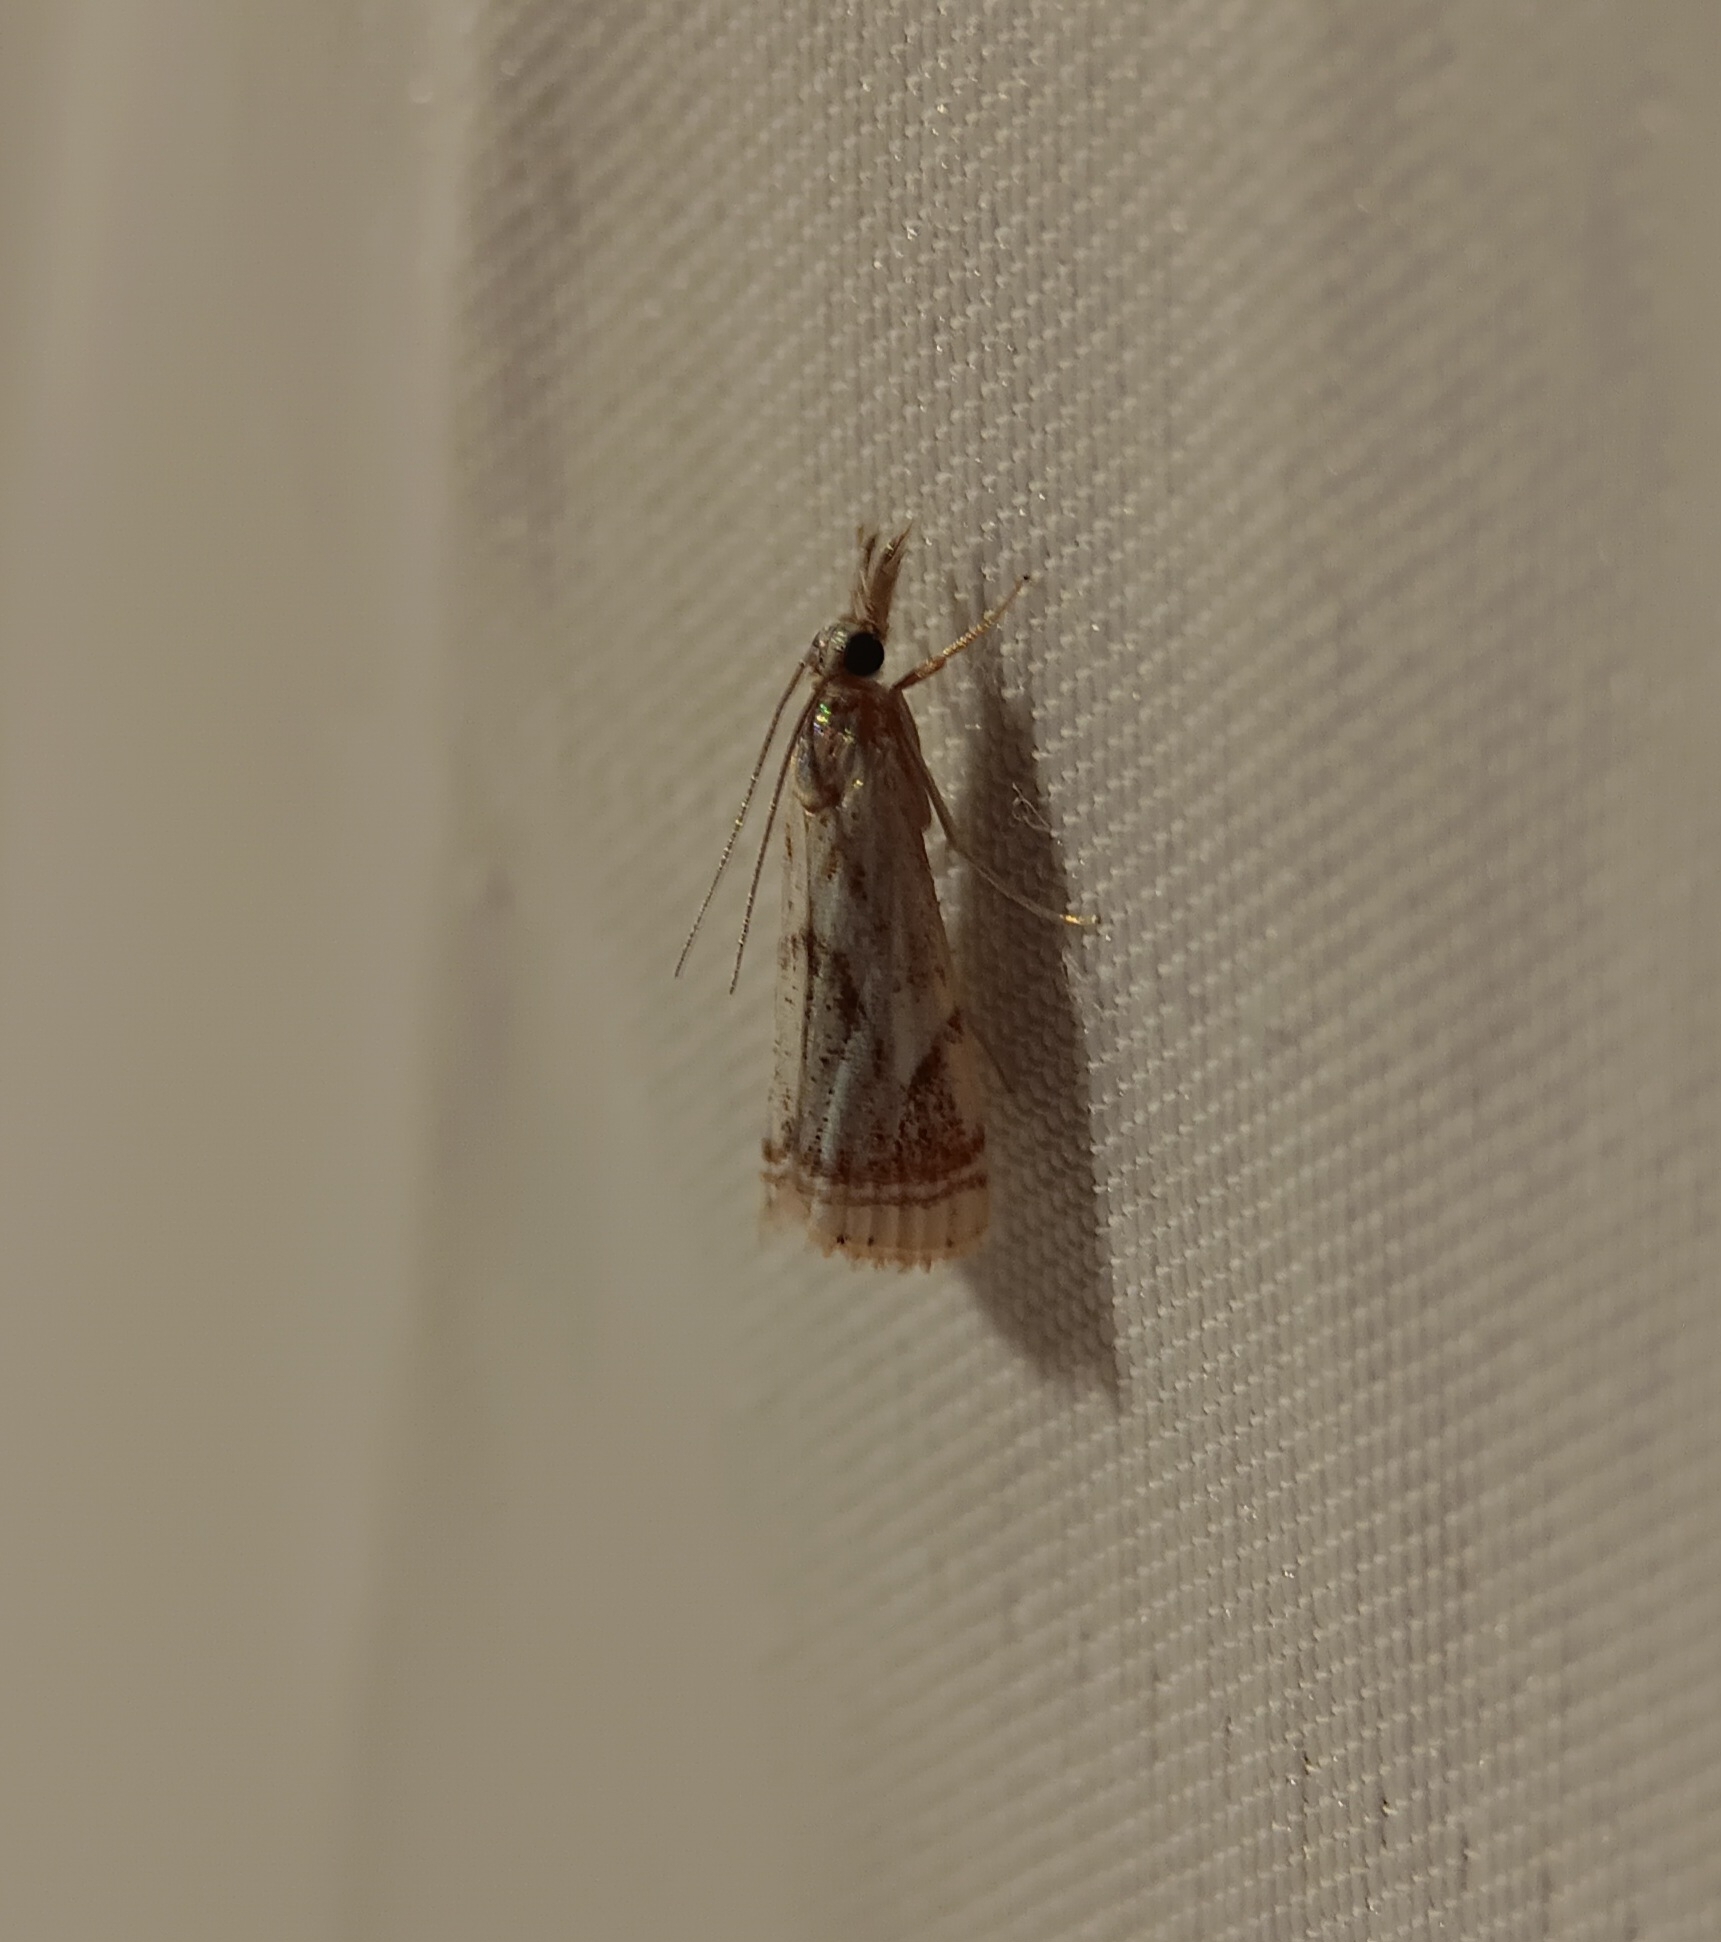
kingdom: Animalia
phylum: Arthropoda
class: Insecta
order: Lepidoptera
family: Crambidae
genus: Microcrambus
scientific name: Microcrambus elegans
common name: Elegant grass-veneer
